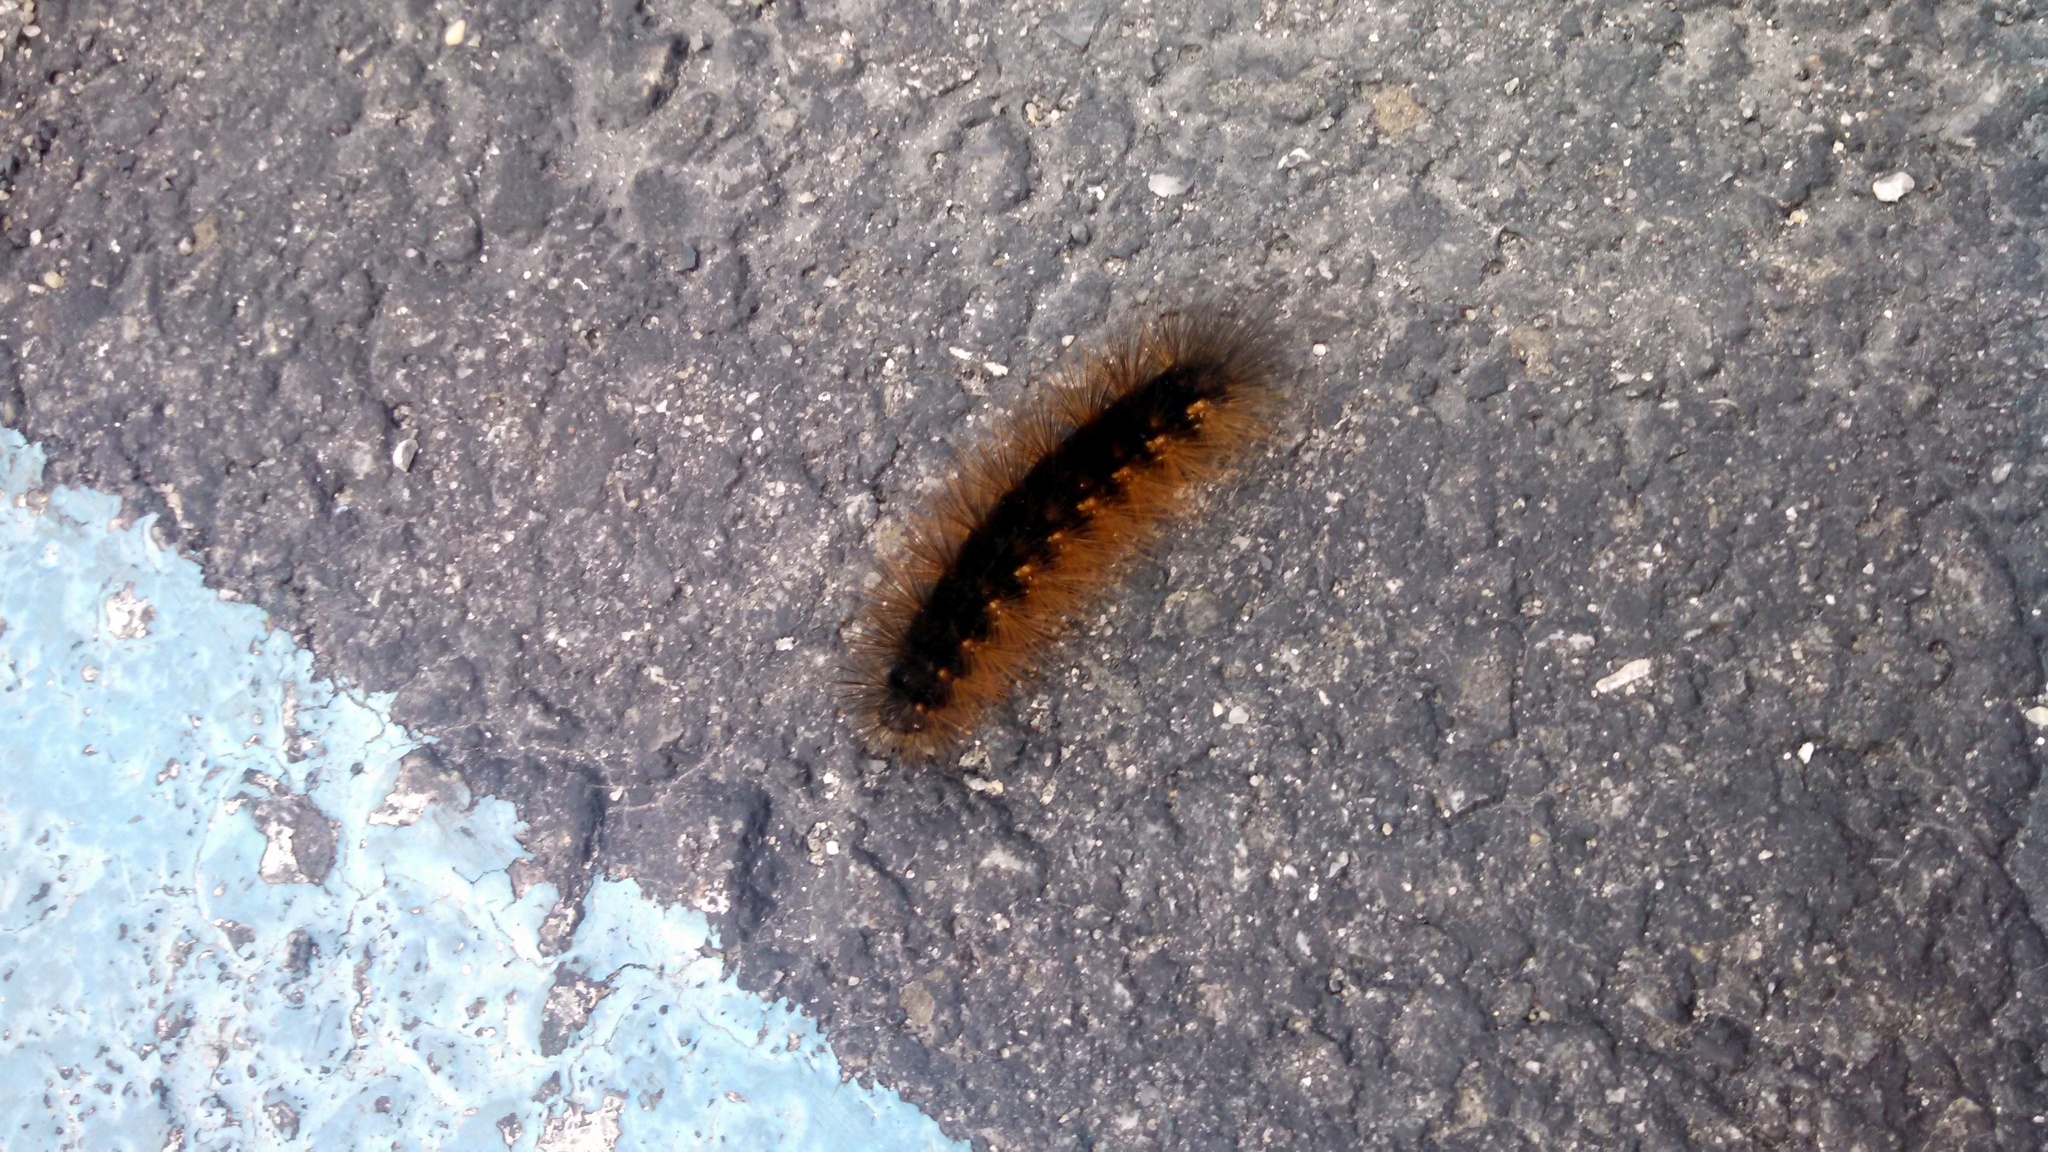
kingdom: Animalia
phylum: Arthropoda
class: Insecta
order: Lepidoptera
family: Erebidae
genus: Estigmene
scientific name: Estigmene acrea
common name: Salt marsh moth
